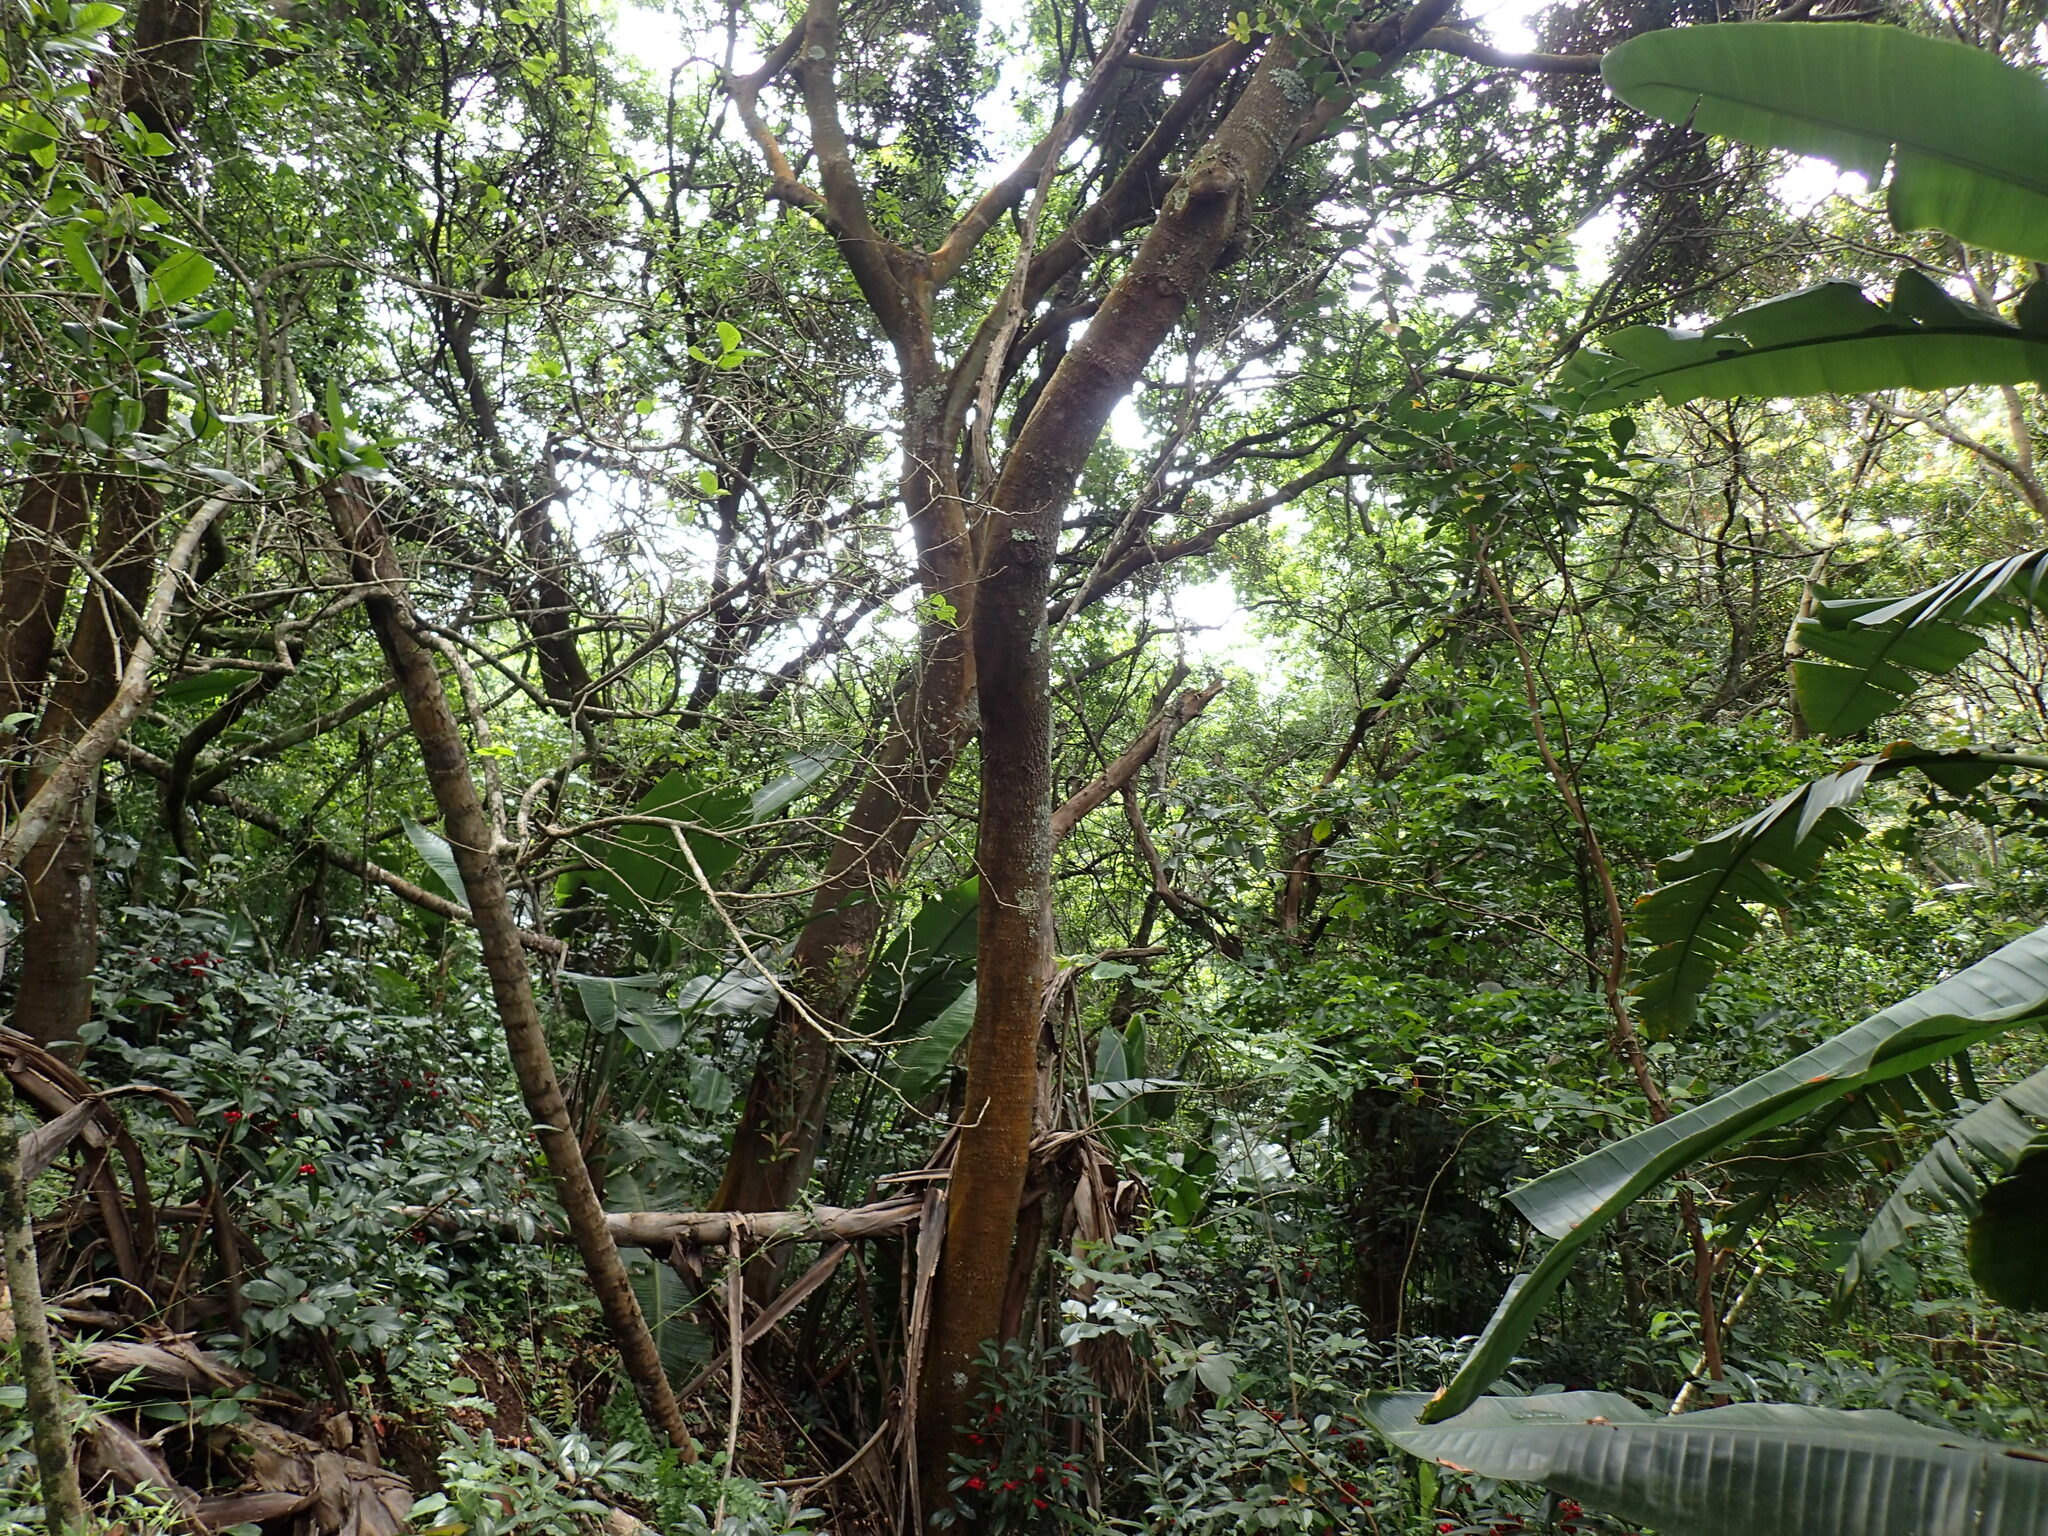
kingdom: Plantae
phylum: Tracheophyta
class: Magnoliopsida
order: Sapindales
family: Anacardiaceae
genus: Protorhus
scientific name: Protorhus longifolia
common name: Red-beech
